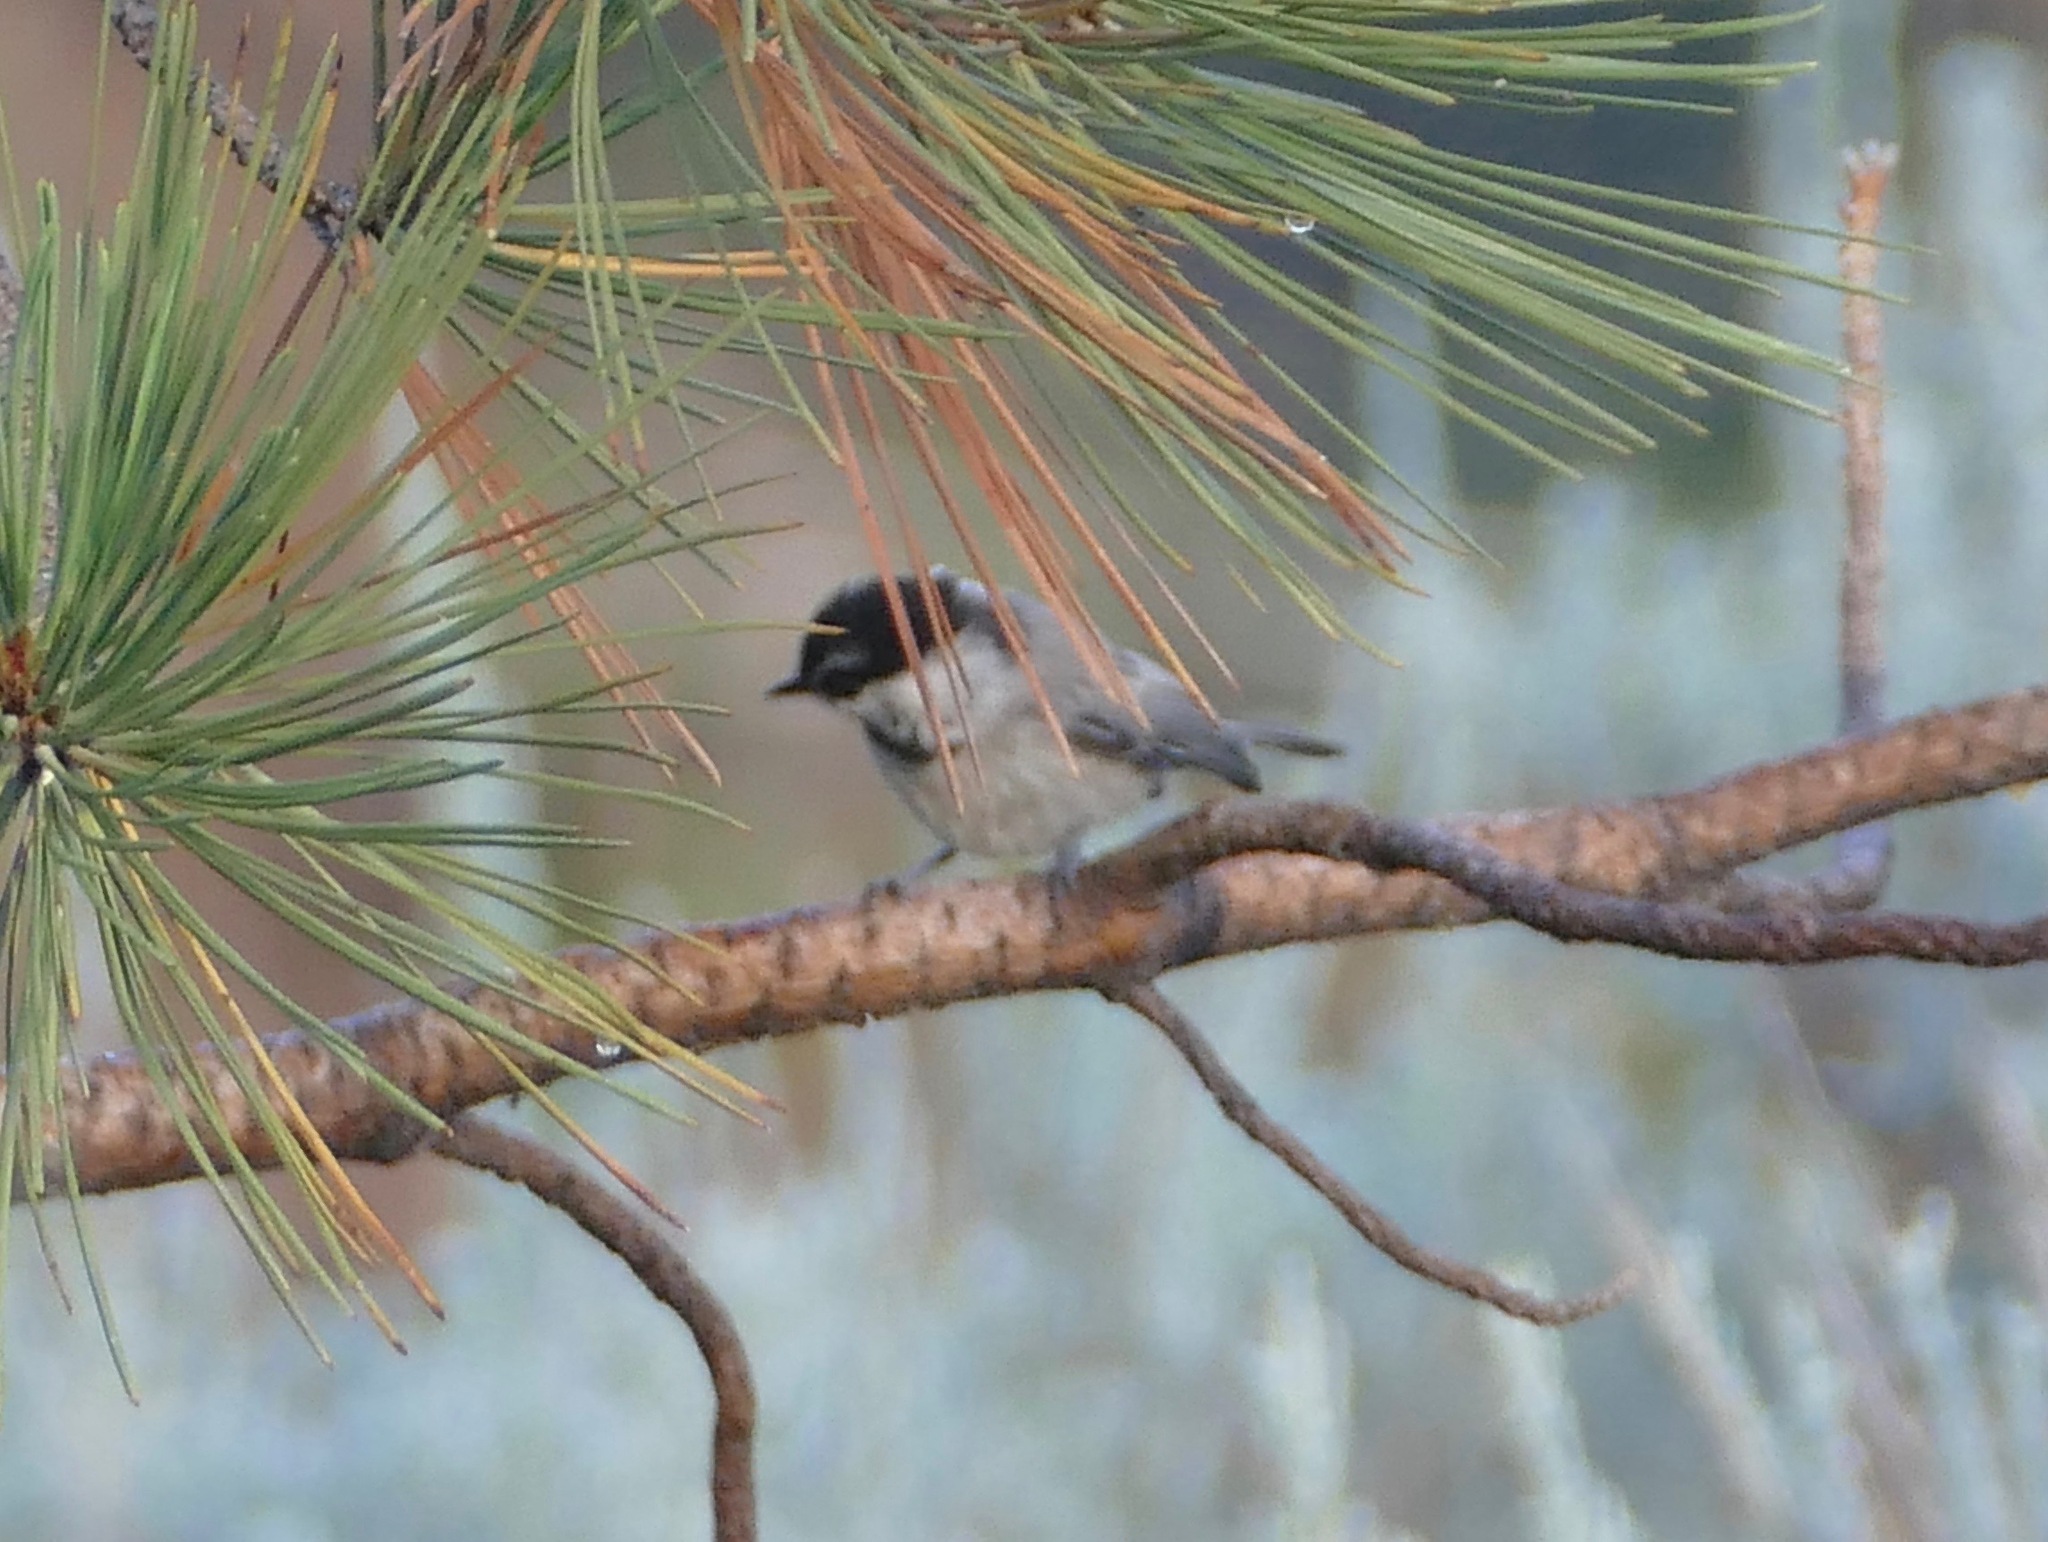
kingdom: Animalia
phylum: Chordata
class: Aves
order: Passeriformes
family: Paridae
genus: Poecile
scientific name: Poecile gambeli
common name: Mountain chickadee
